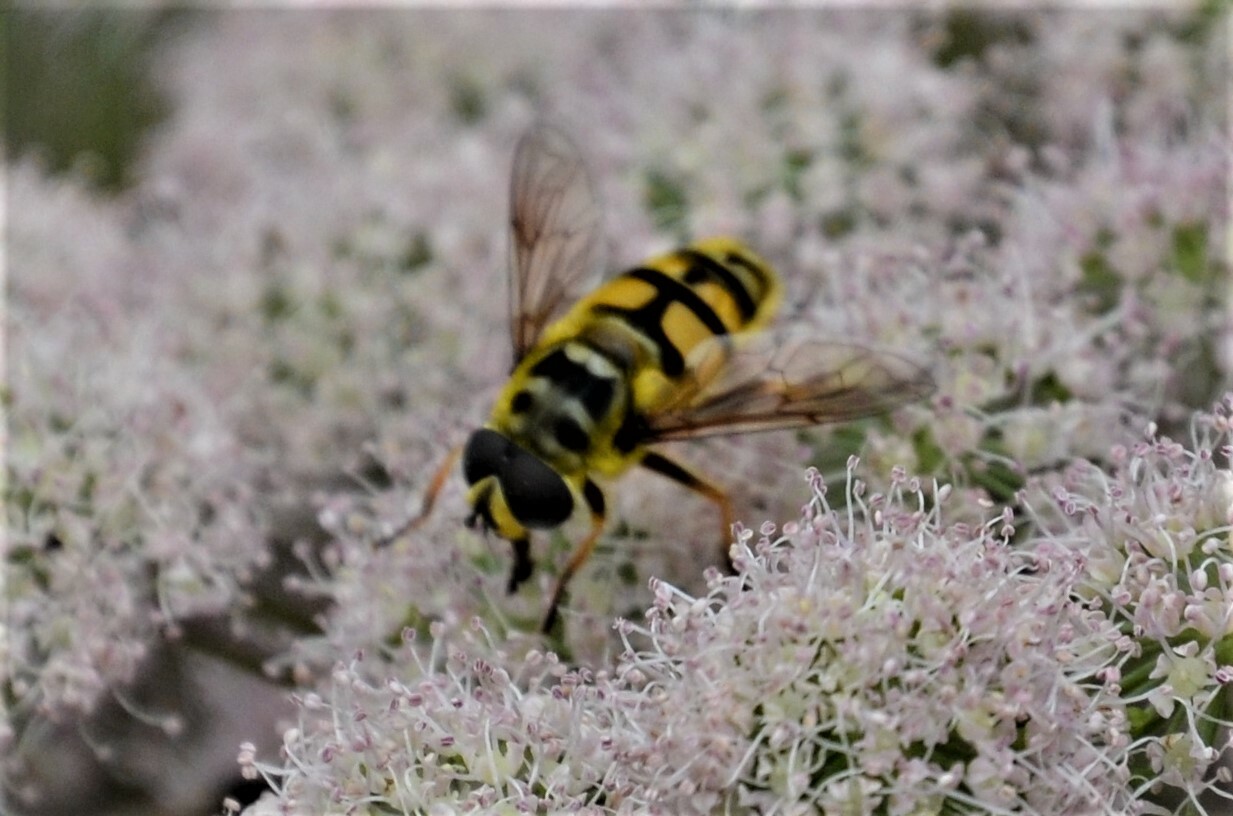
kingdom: Animalia
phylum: Arthropoda
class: Insecta
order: Diptera
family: Syrphidae
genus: Myathropa
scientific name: Myathropa florea
